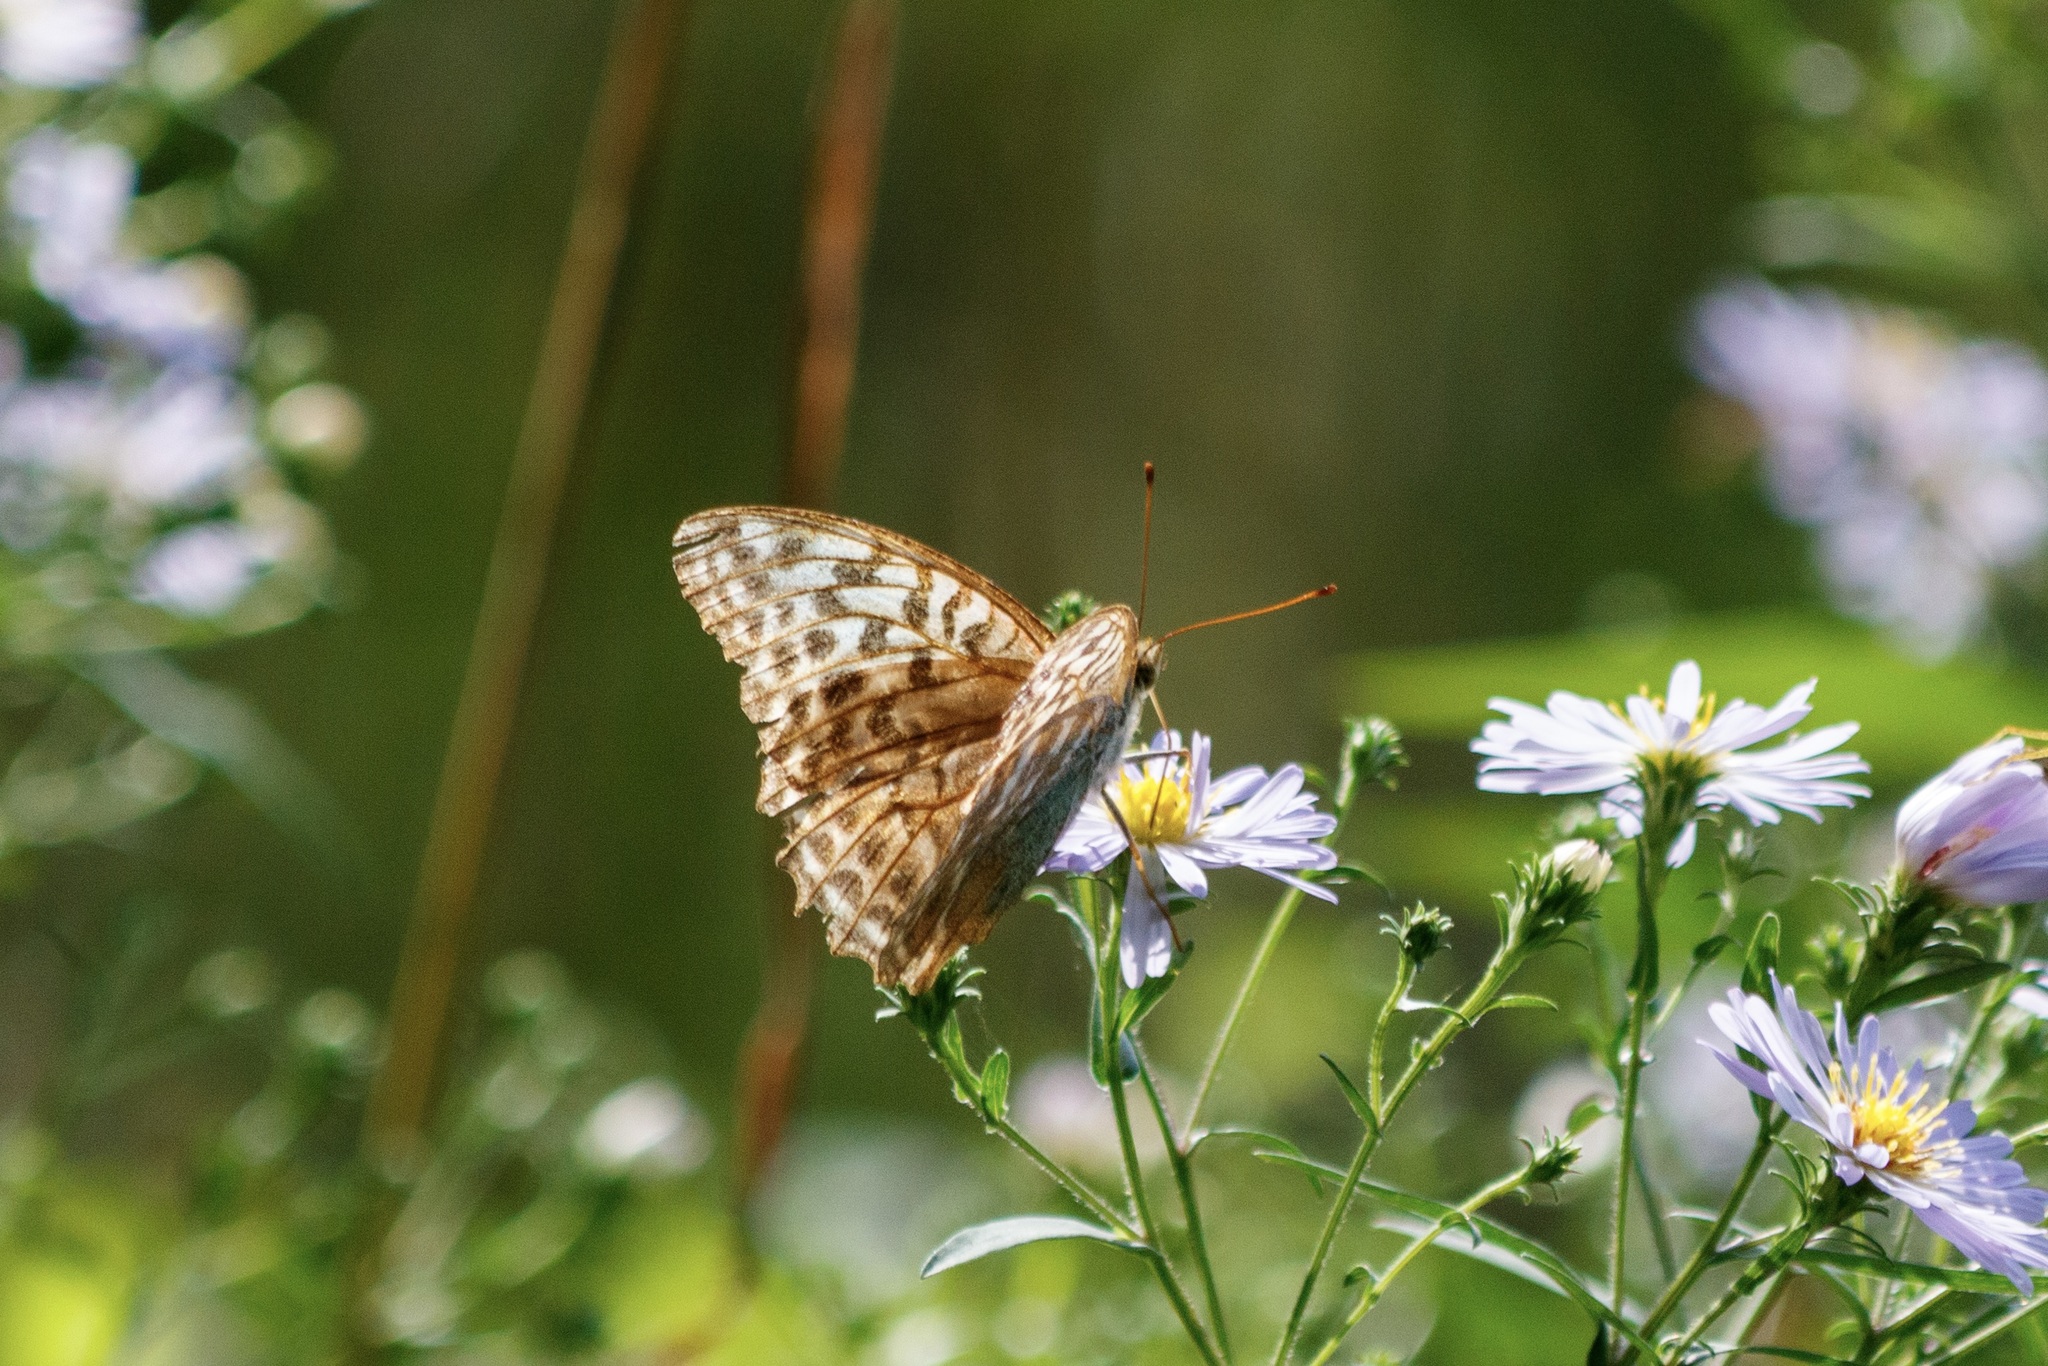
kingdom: Animalia
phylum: Arthropoda
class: Insecta
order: Lepidoptera
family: Nymphalidae
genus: Argynnis
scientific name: Argynnis paphia
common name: Silver-washed fritillary
